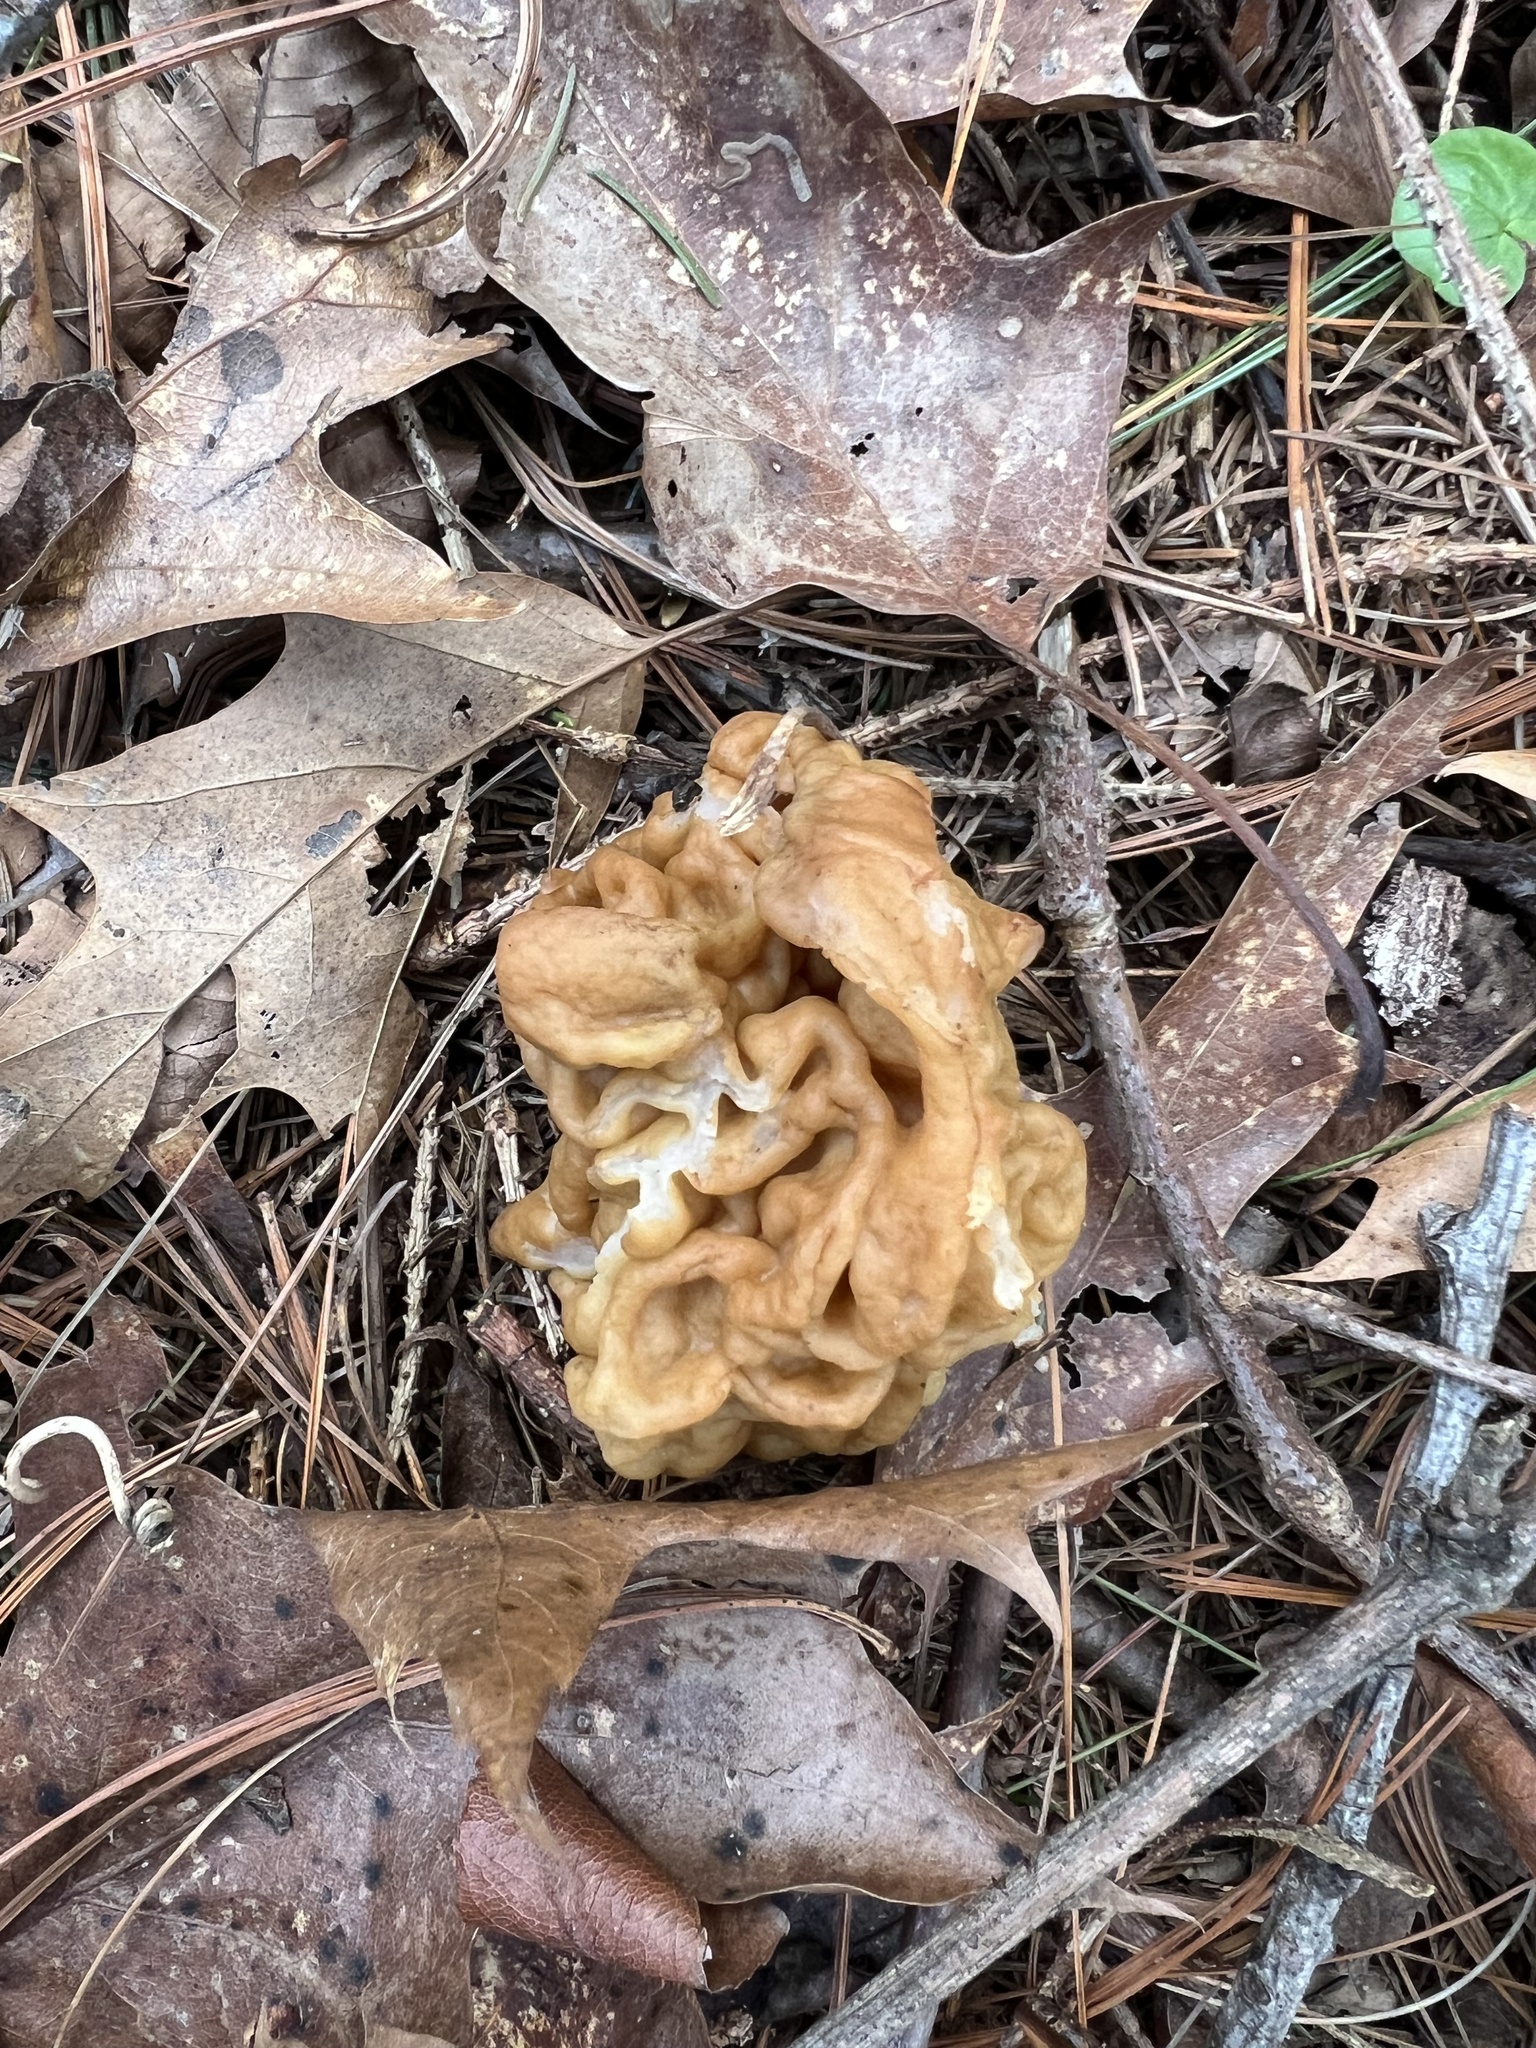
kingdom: Fungi
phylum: Ascomycota
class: Pezizomycetes
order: Pezizales
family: Discinaceae
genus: Gyromitra
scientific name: Gyromitra korfii
